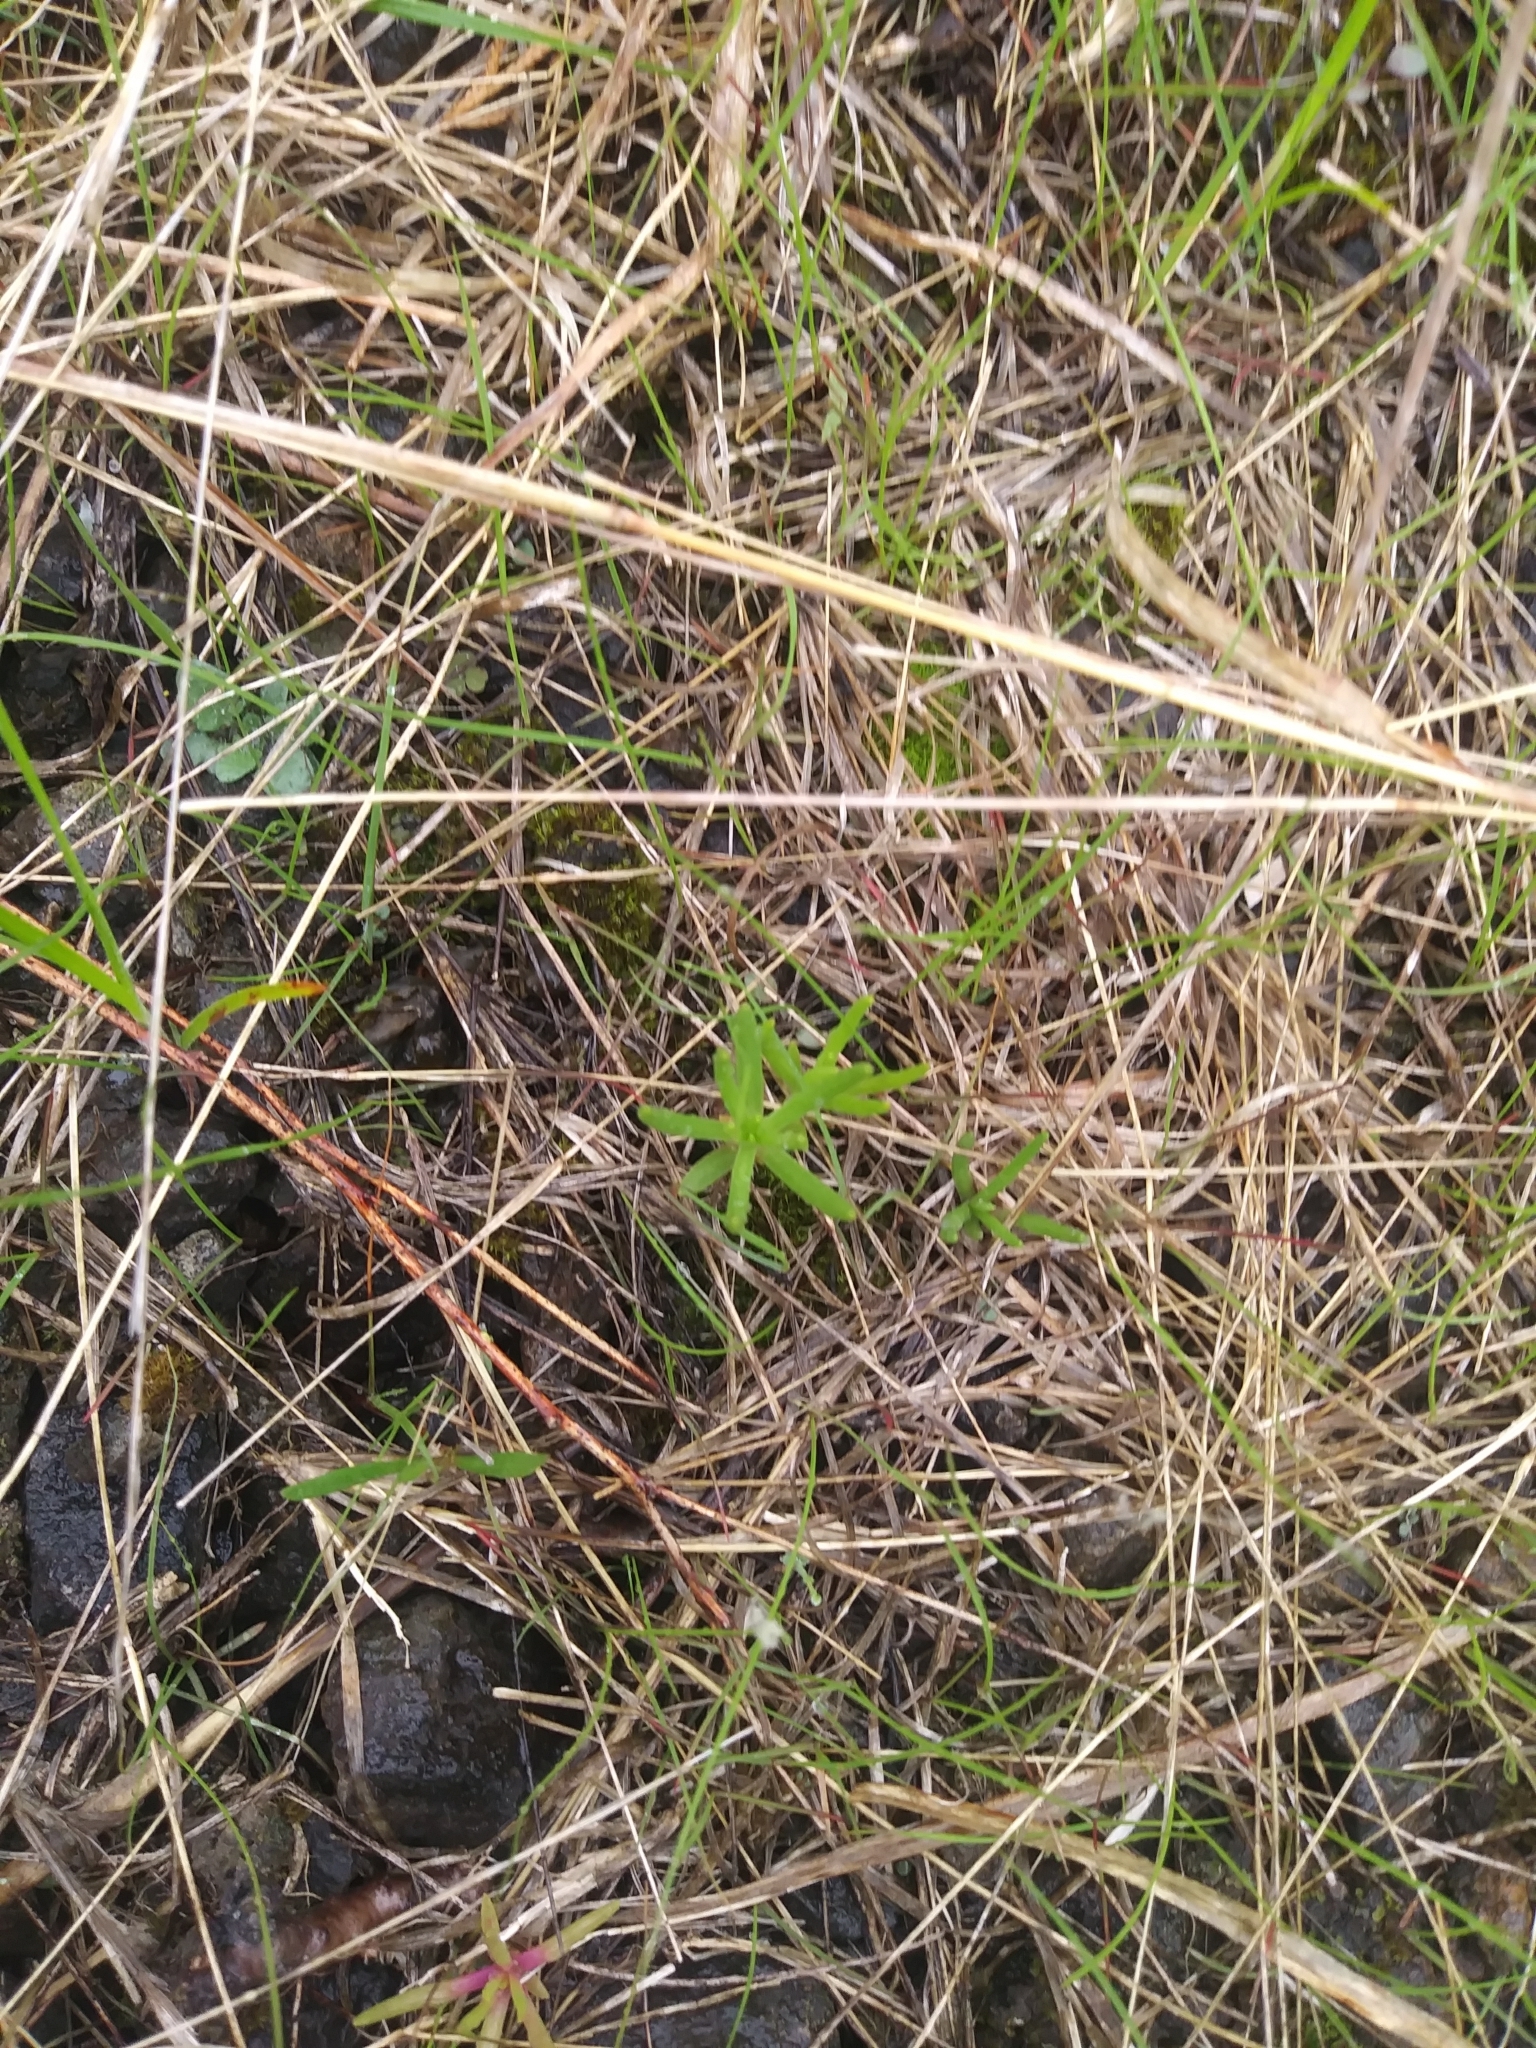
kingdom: Plantae
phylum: Tracheophyta
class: Magnoliopsida
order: Caryophyllales
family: Montiaceae
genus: Phemeranthus
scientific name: Phemeranthus teretifolius
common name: Quill fameflower
